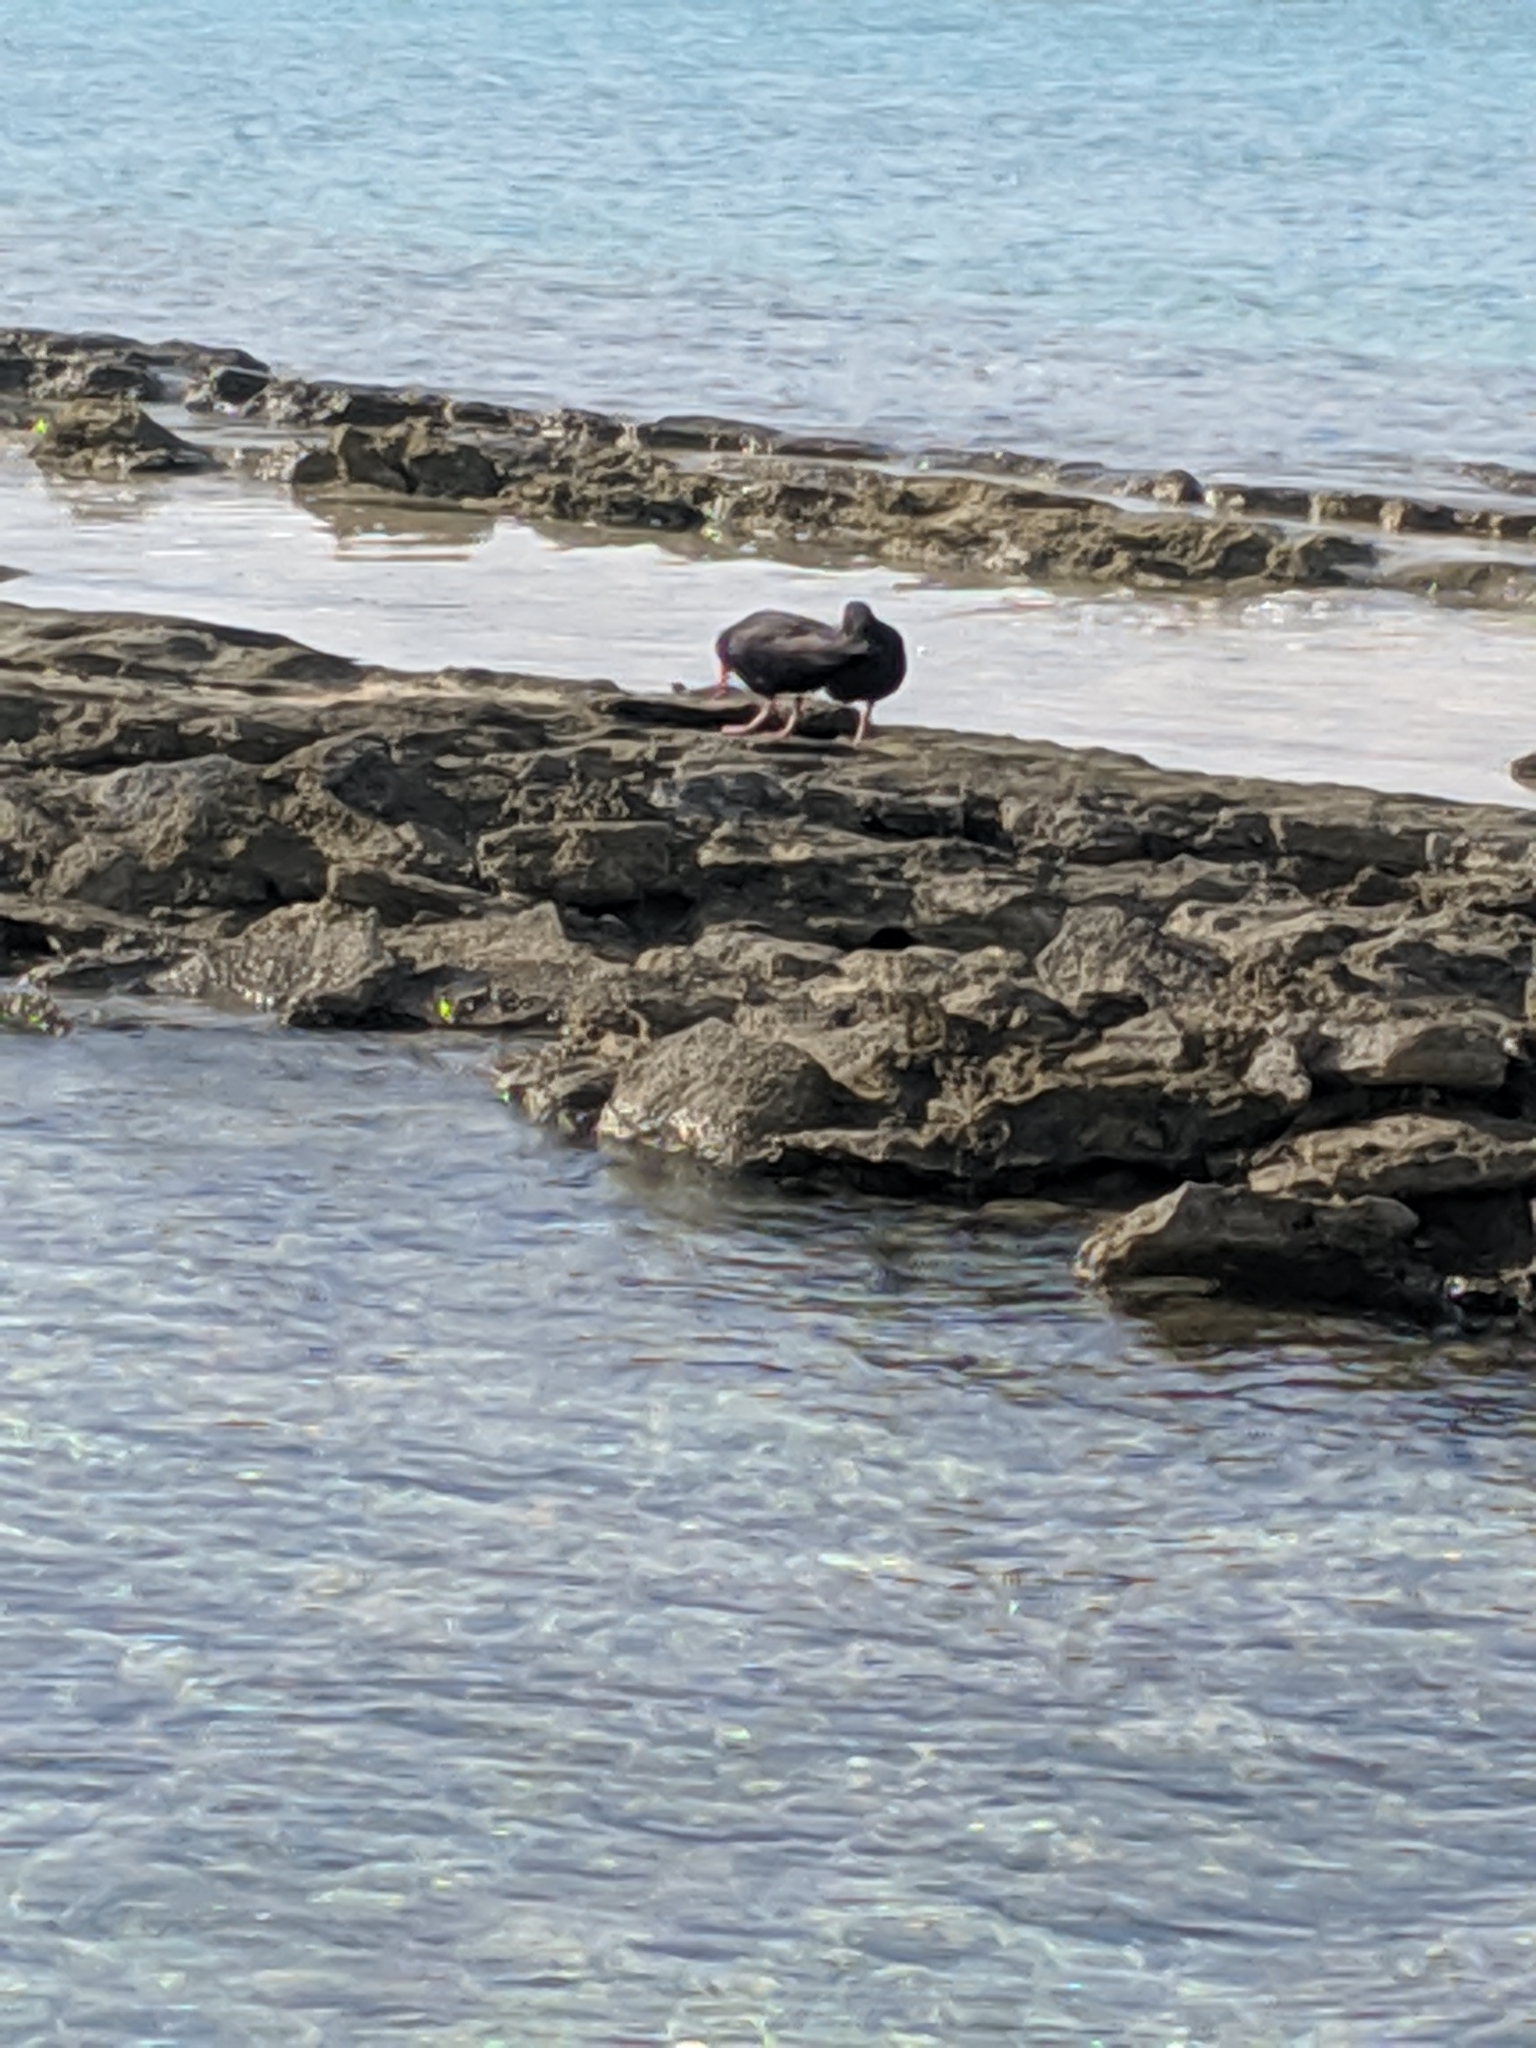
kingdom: Animalia
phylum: Chordata
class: Aves
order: Charadriiformes
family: Haematopodidae
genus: Haematopus
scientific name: Haematopus fuliginosus
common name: Sooty oystercatcher
